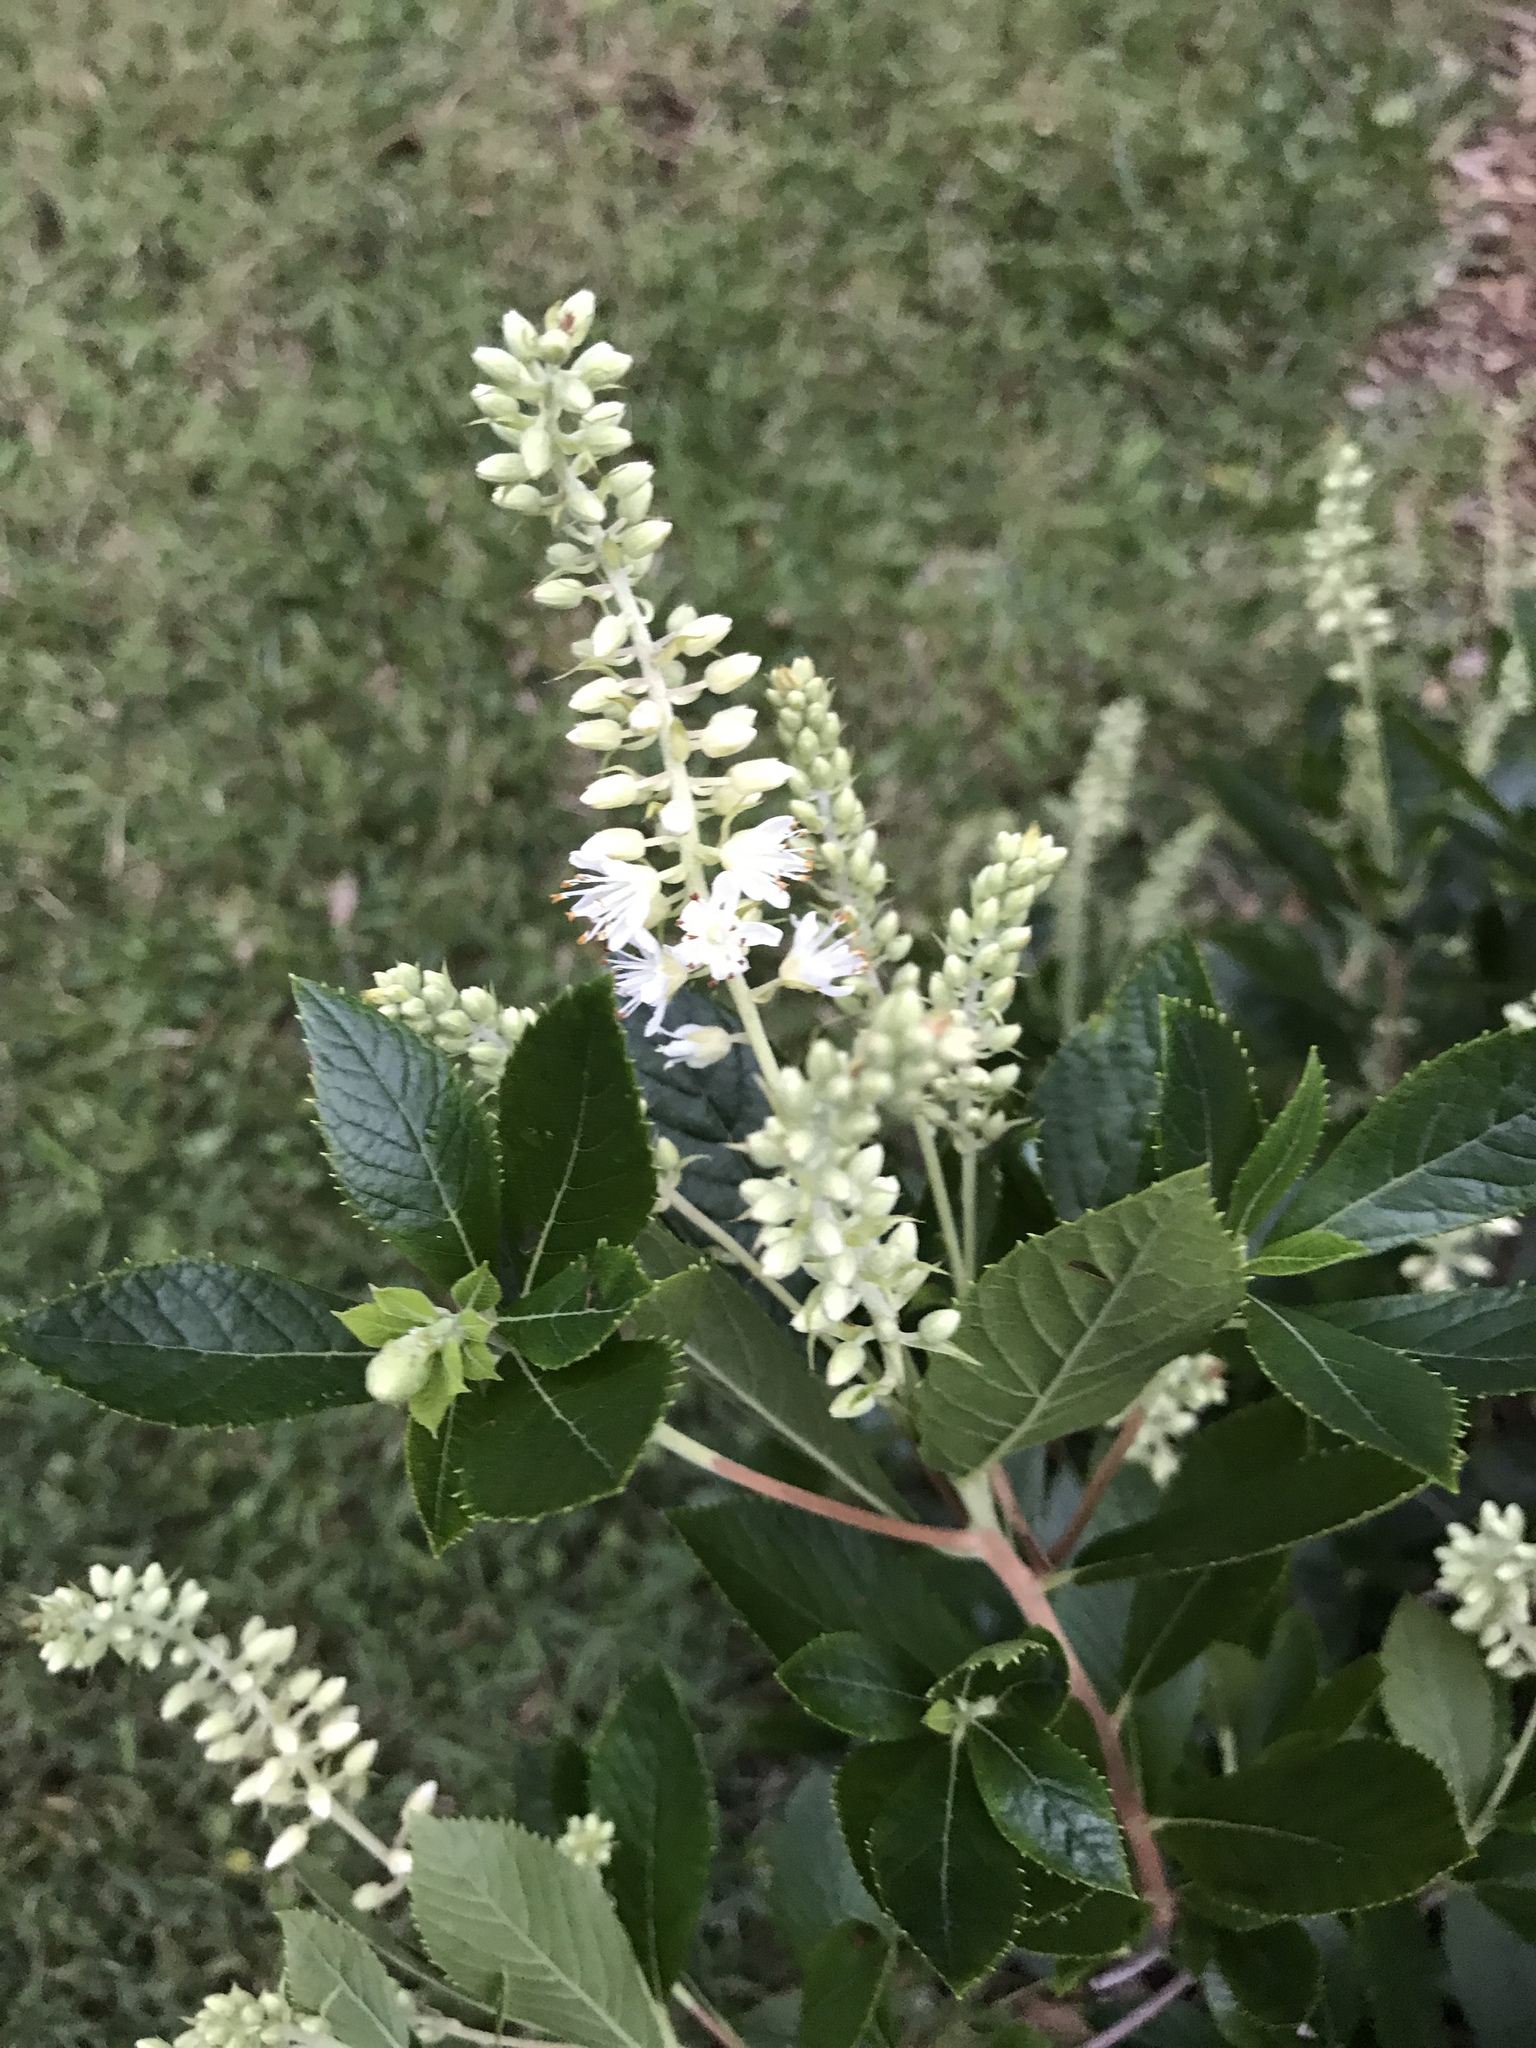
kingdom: Plantae
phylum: Tracheophyta
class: Magnoliopsida
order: Ericales
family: Clethraceae
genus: Clethra
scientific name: Clethra alnifolia
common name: Sweet pepperbush
